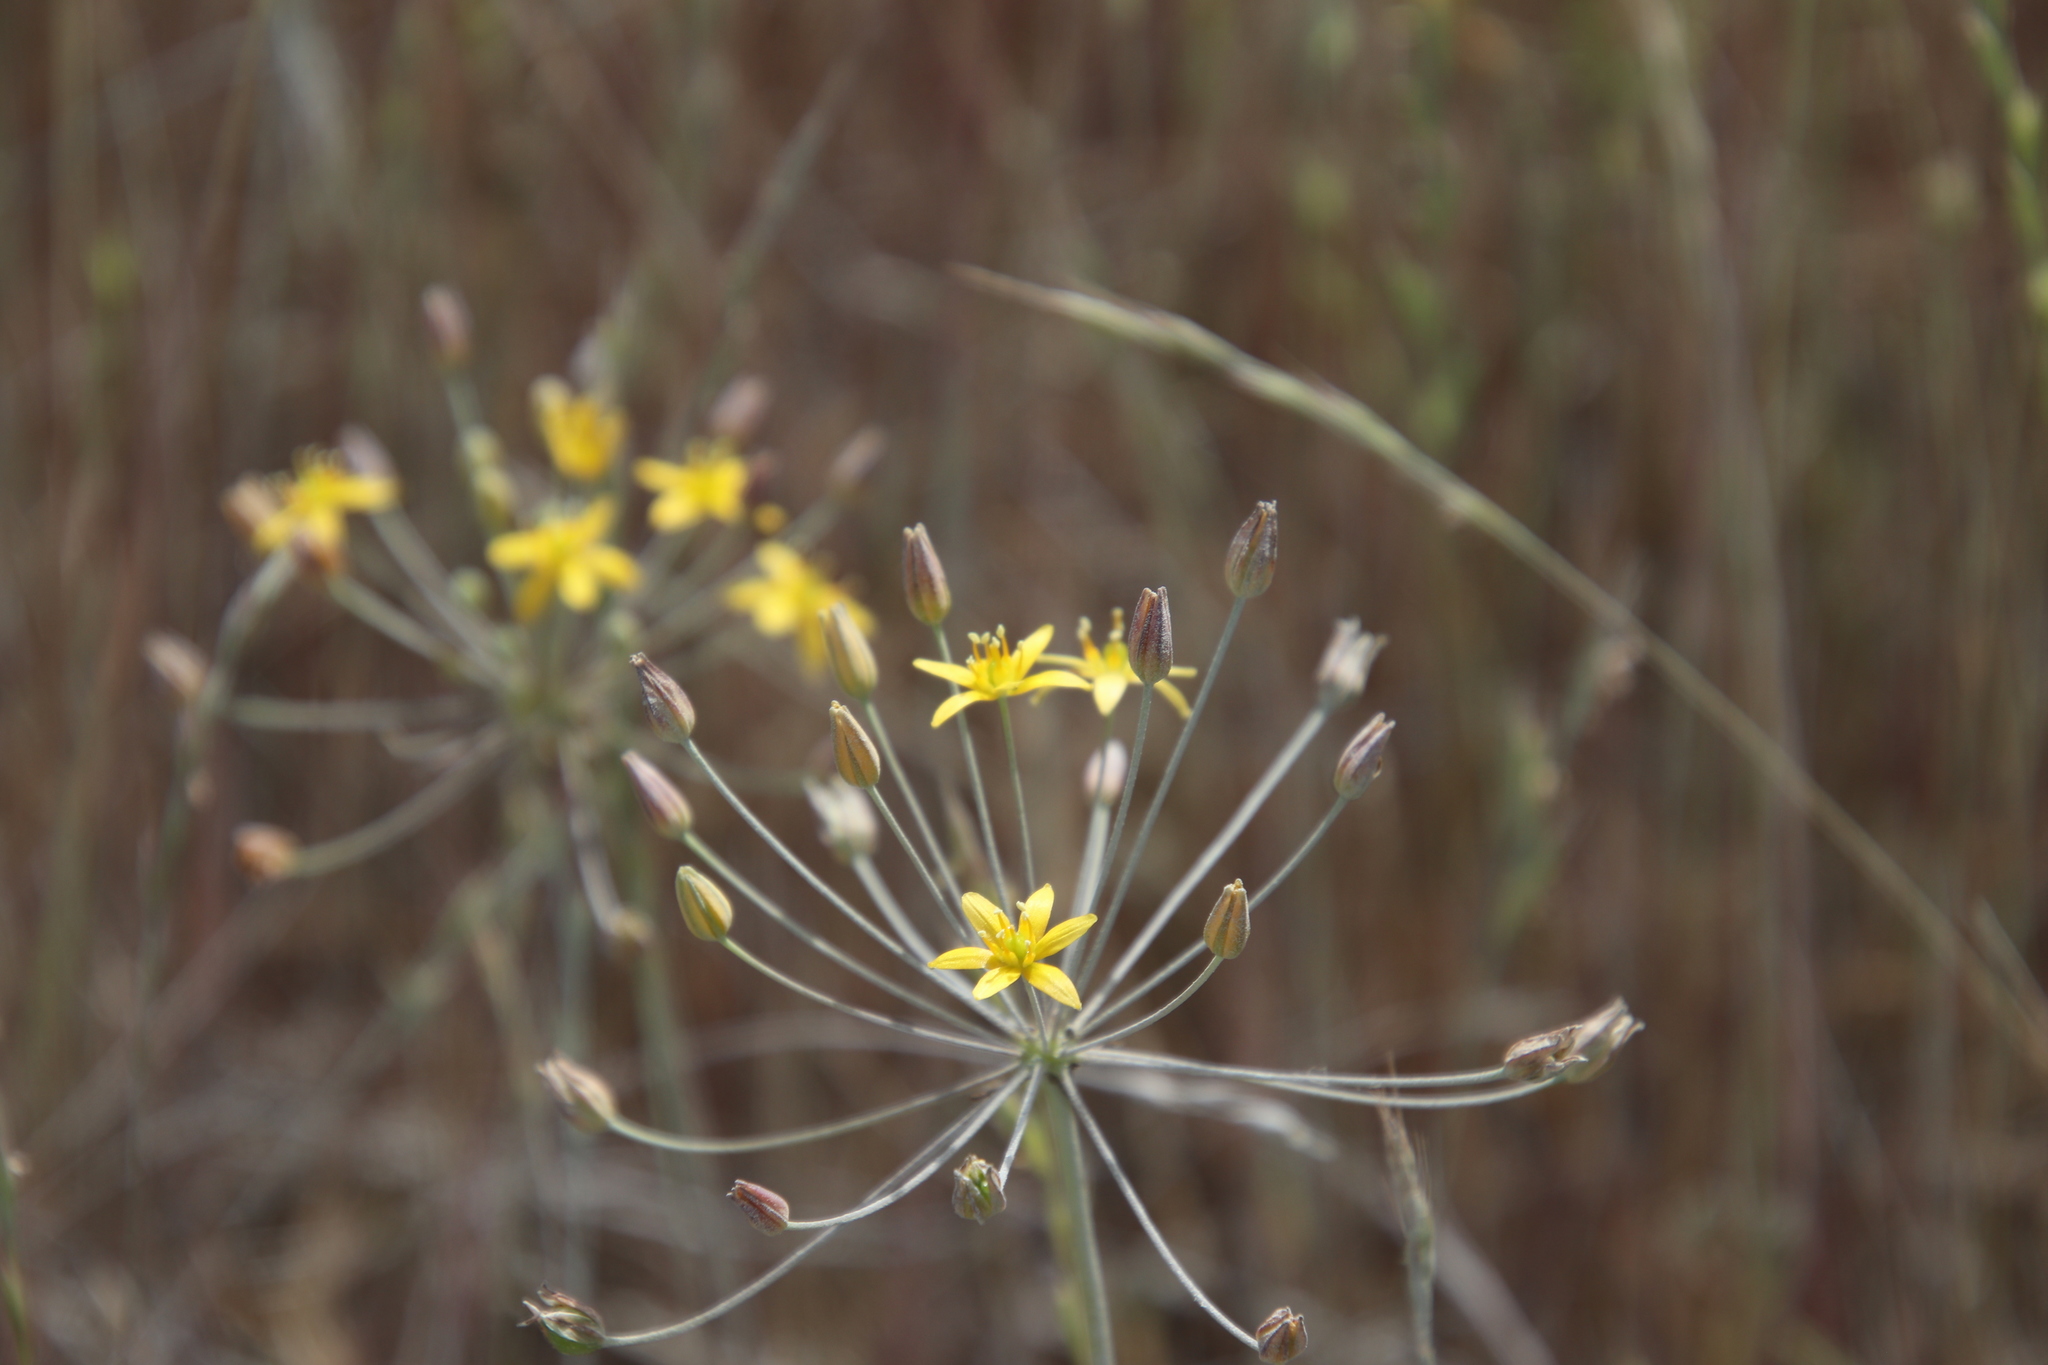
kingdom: Plantae
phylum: Tracheophyta
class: Liliopsida
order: Asparagales
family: Asparagaceae
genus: Bloomeria
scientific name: Bloomeria clevelandii
